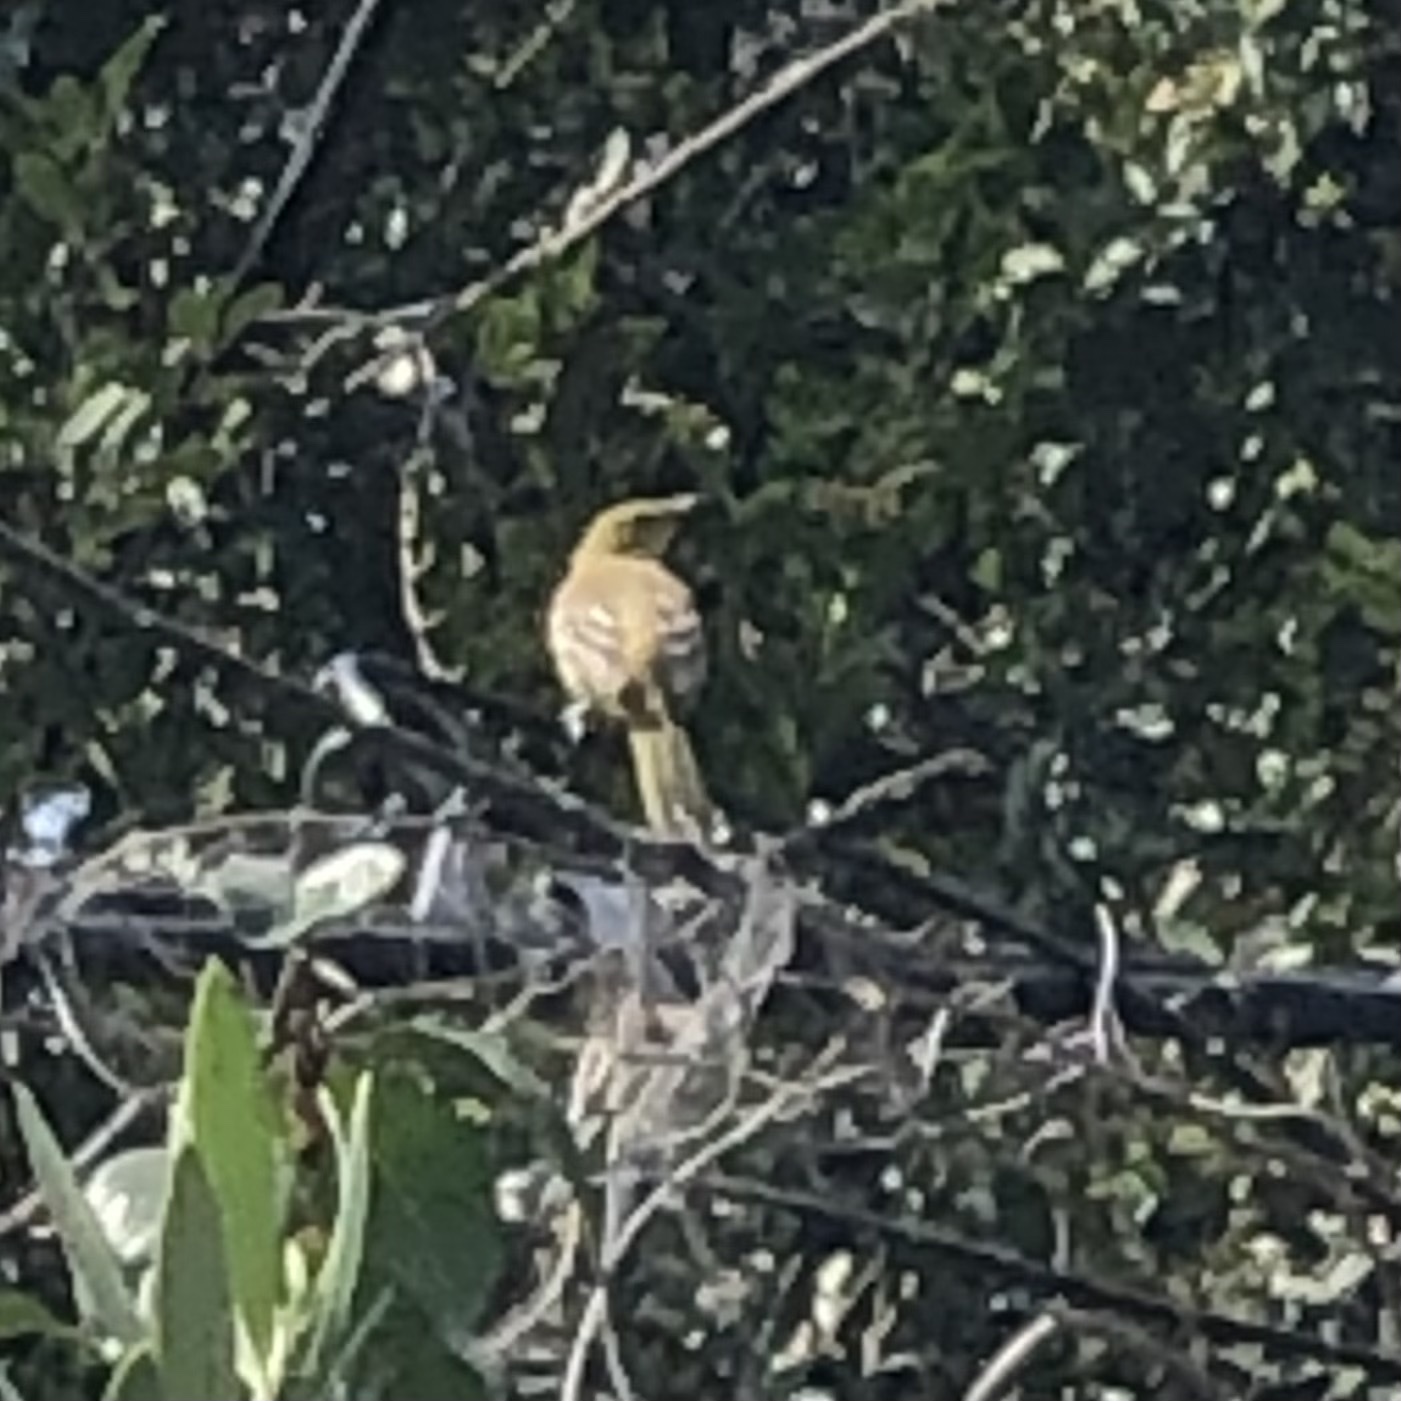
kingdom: Animalia
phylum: Chordata
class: Aves
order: Passeriformes
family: Icteridae
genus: Icterus
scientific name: Icterus cucullatus
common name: Hooded oriole
